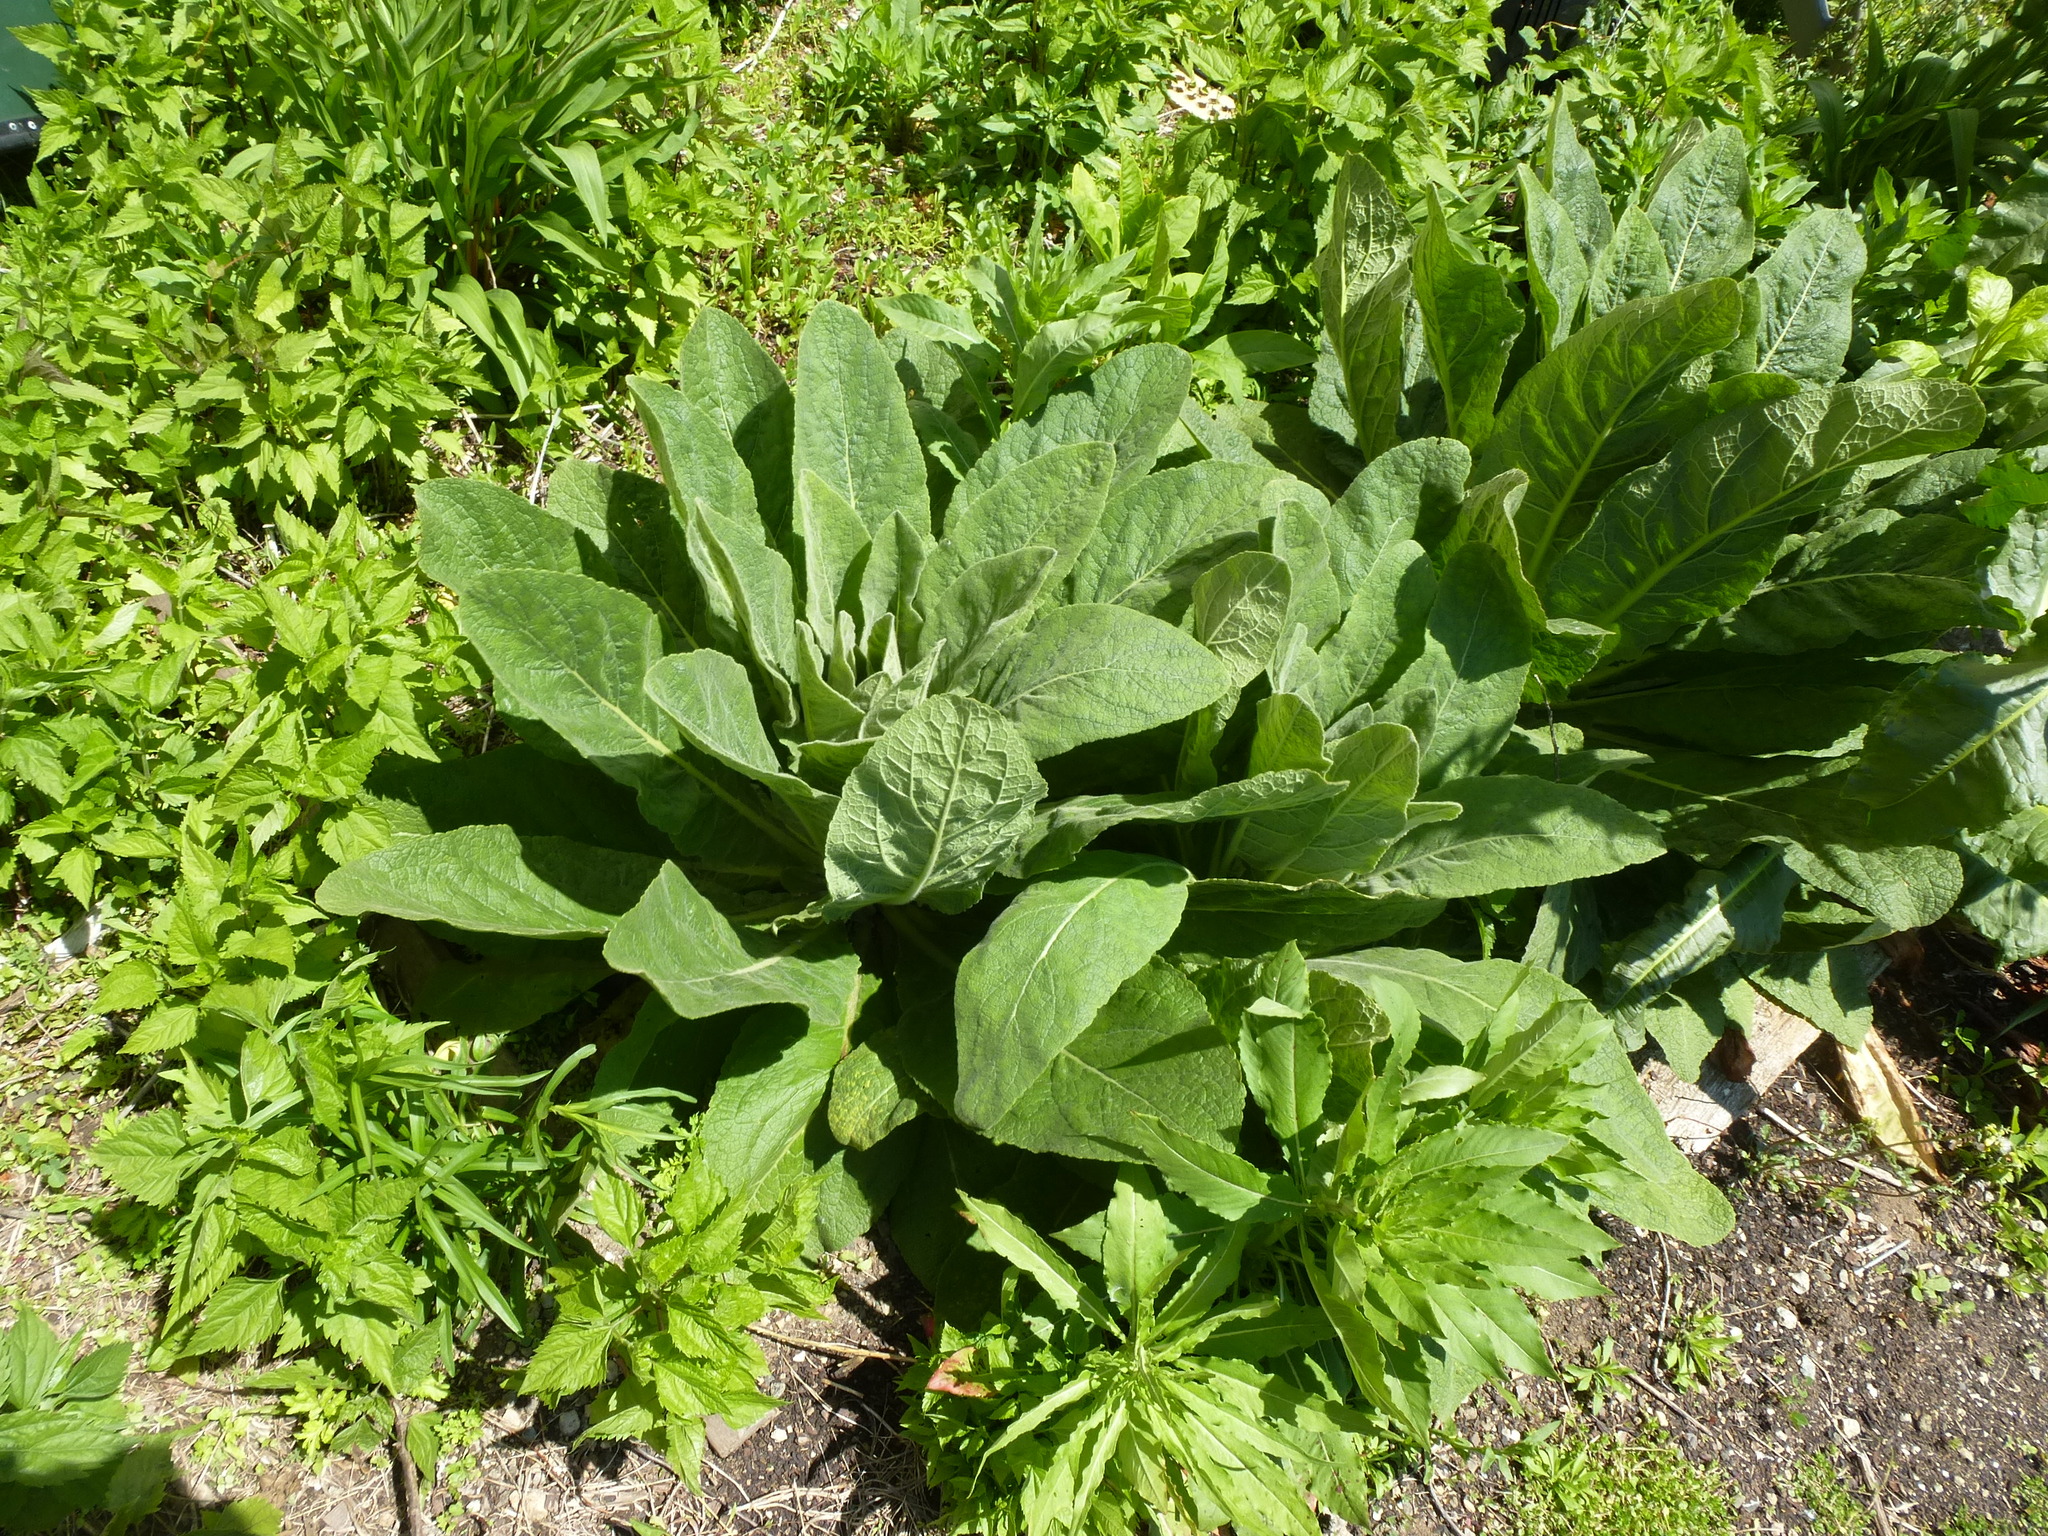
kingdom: Plantae
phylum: Tracheophyta
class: Magnoliopsida
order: Lamiales
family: Scrophulariaceae
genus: Verbascum
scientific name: Verbascum thapsus
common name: Common mullein
